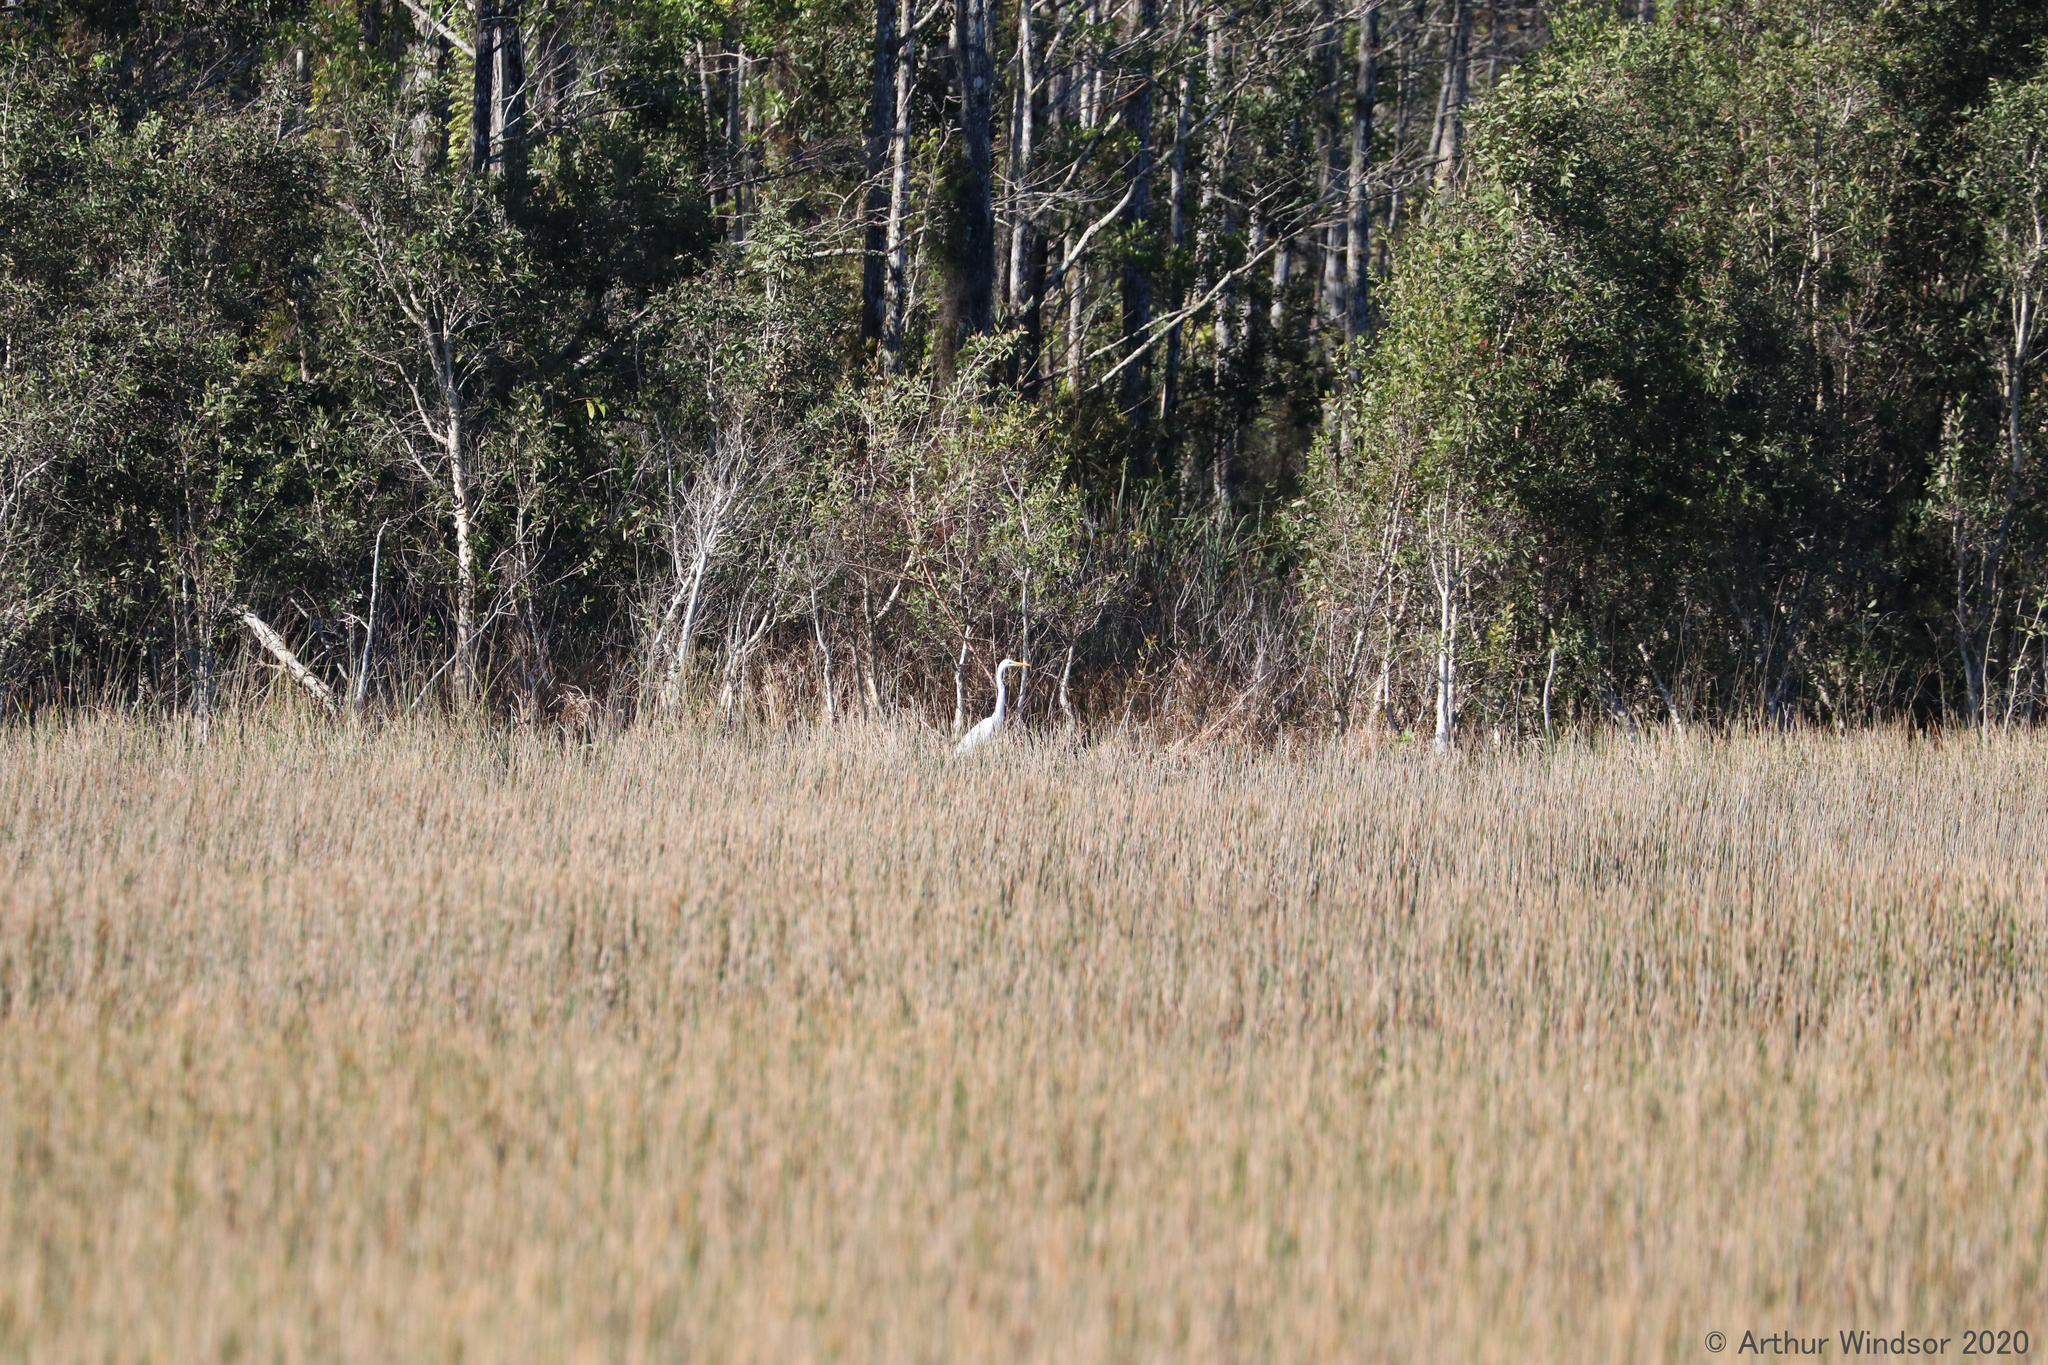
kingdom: Animalia
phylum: Chordata
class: Aves
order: Pelecaniformes
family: Ardeidae
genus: Ardea
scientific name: Ardea alba
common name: Great egret
